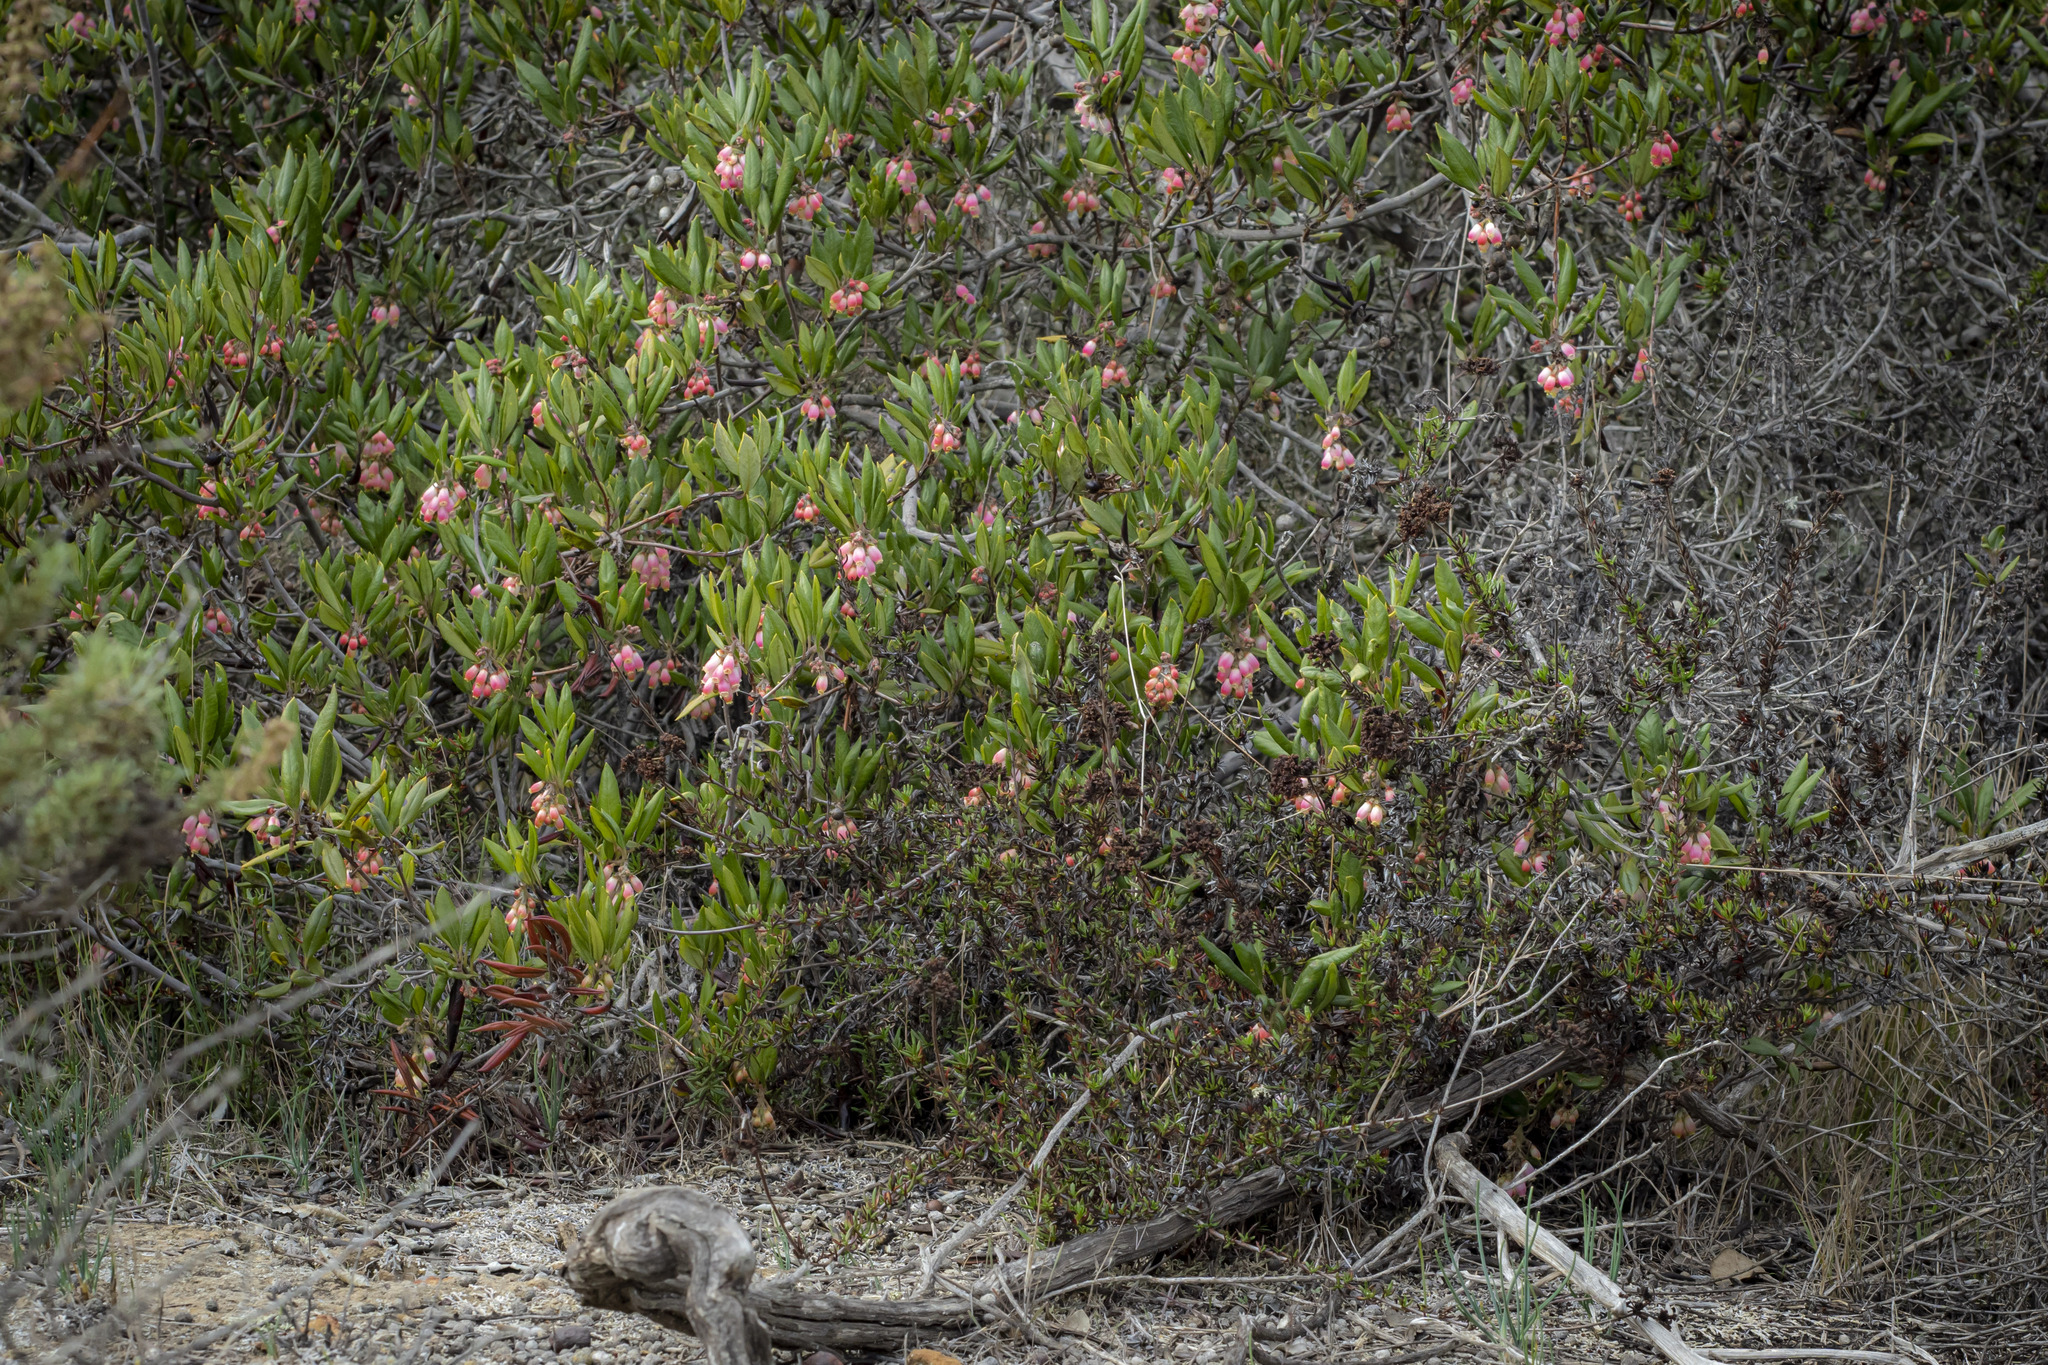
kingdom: Plantae
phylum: Tracheophyta
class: Magnoliopsida
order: Ericales
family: Ericaceae
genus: Arctostaphylos
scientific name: Arctostaphylos bicolor
